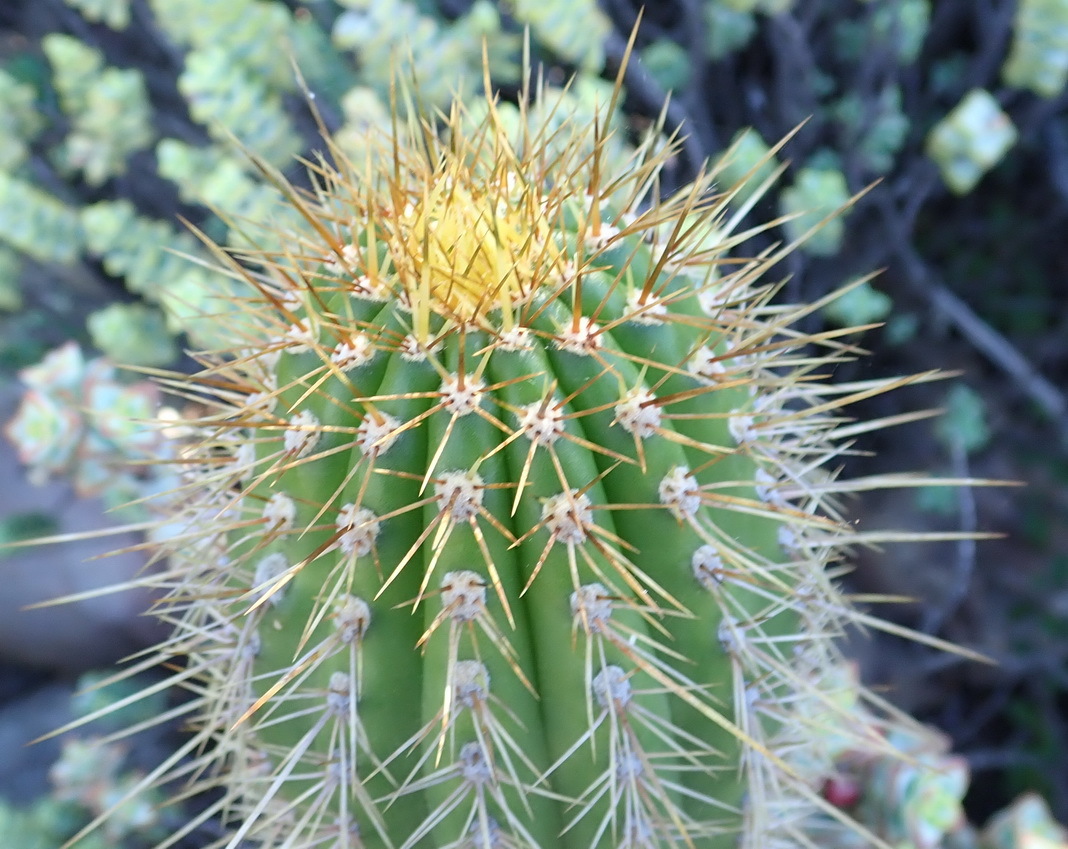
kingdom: Plantae
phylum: Tracheophyta
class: Magnoliopsida
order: Caryophyllales
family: Cactaceae
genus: Soehrensia
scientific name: Soehrensia spachiana
